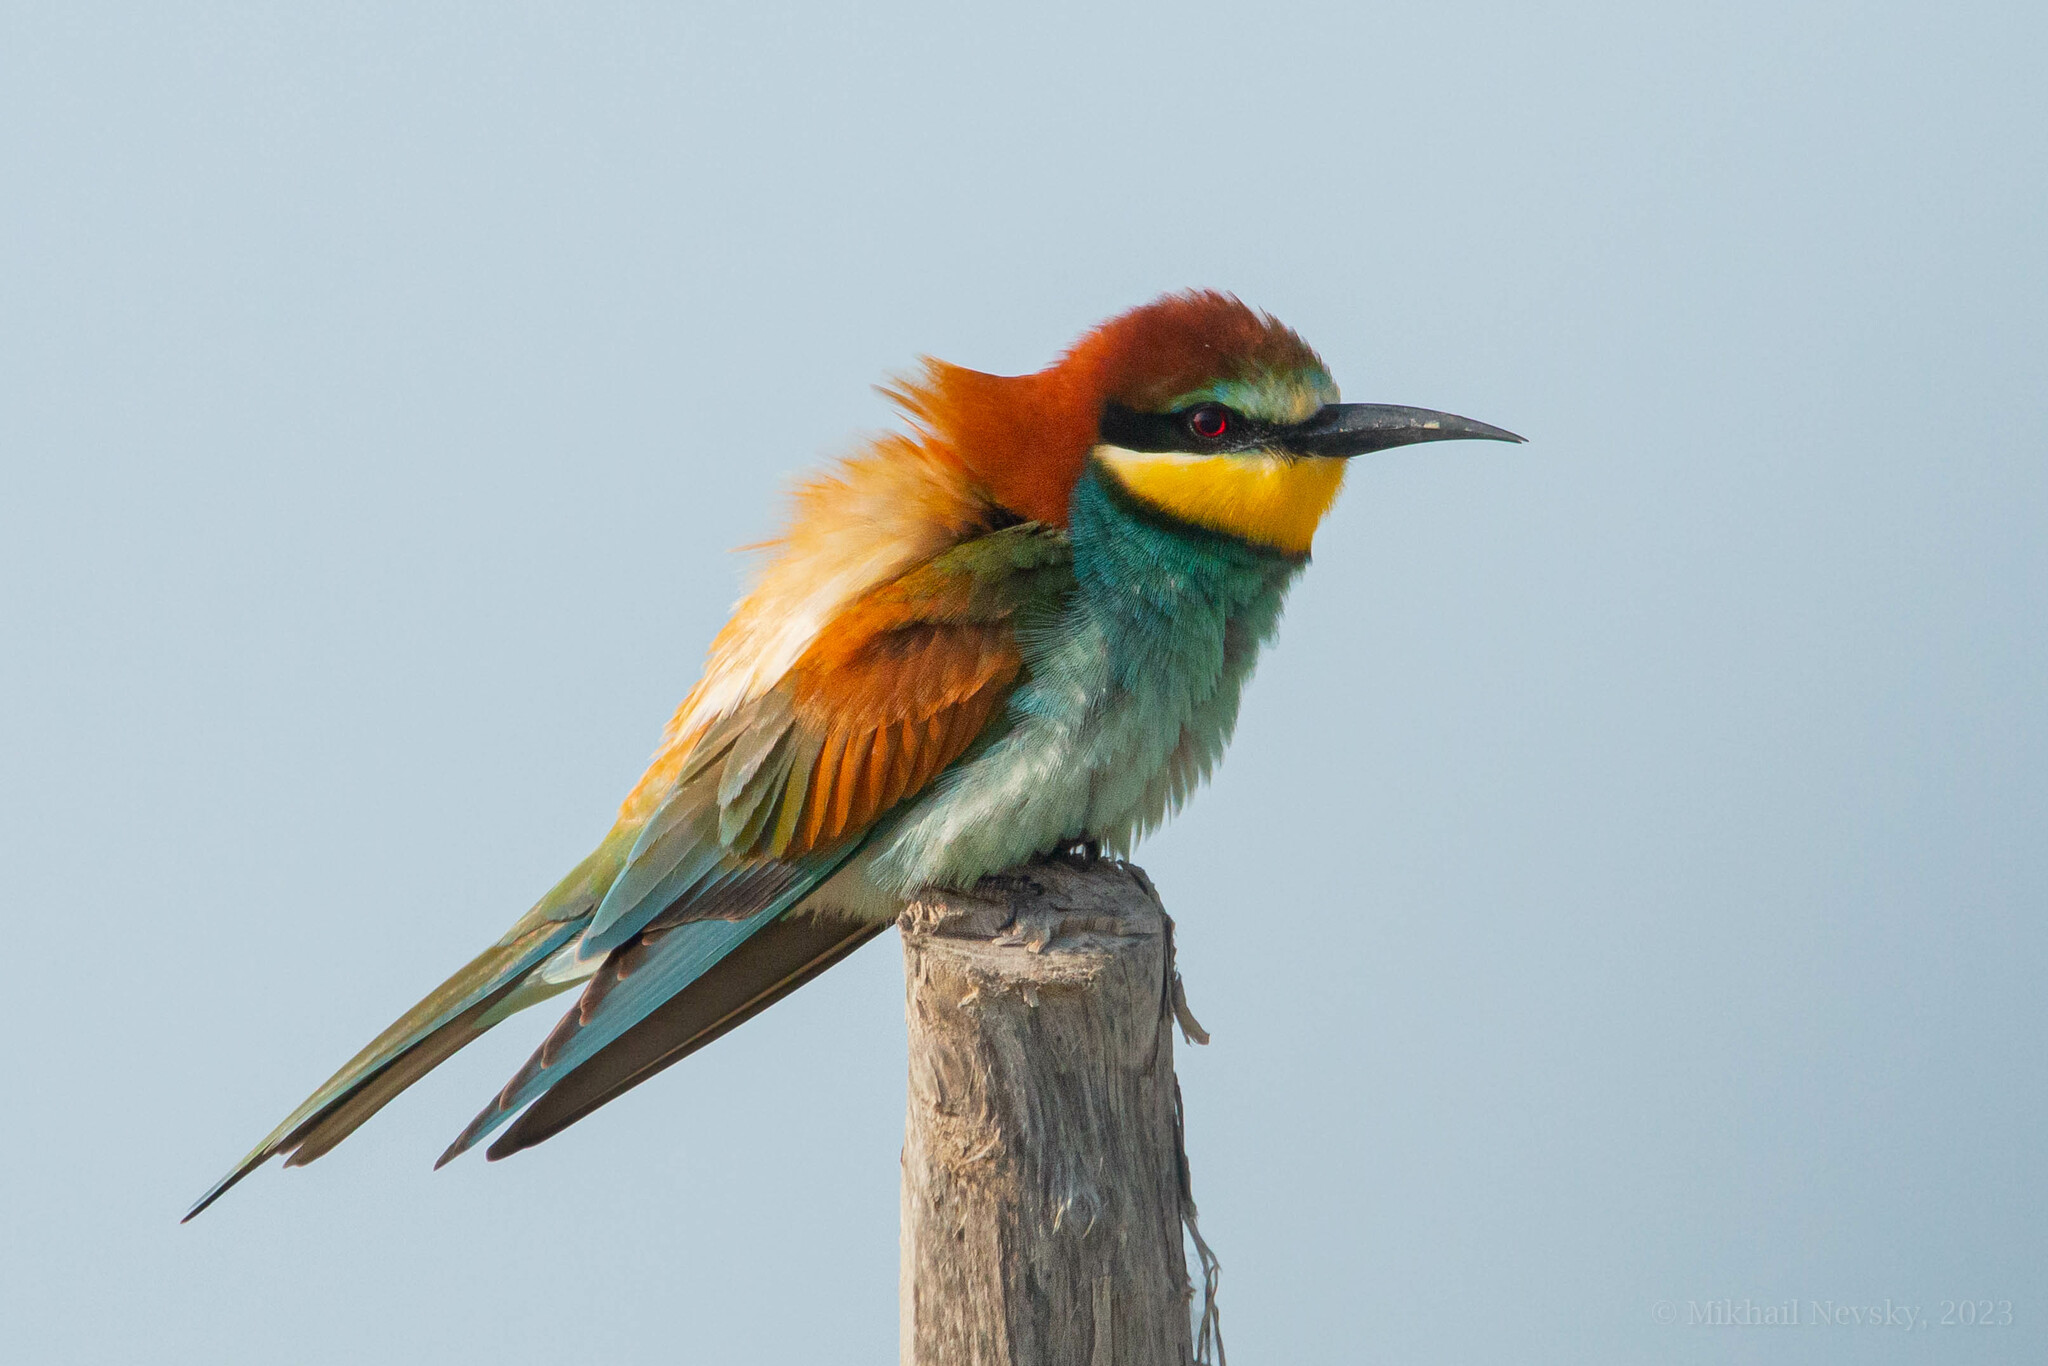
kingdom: Animalia
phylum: Chordata
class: Aves
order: Coraciiformes
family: Meropidae
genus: Merops
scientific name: Merops apiaster
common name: European bee-eater
